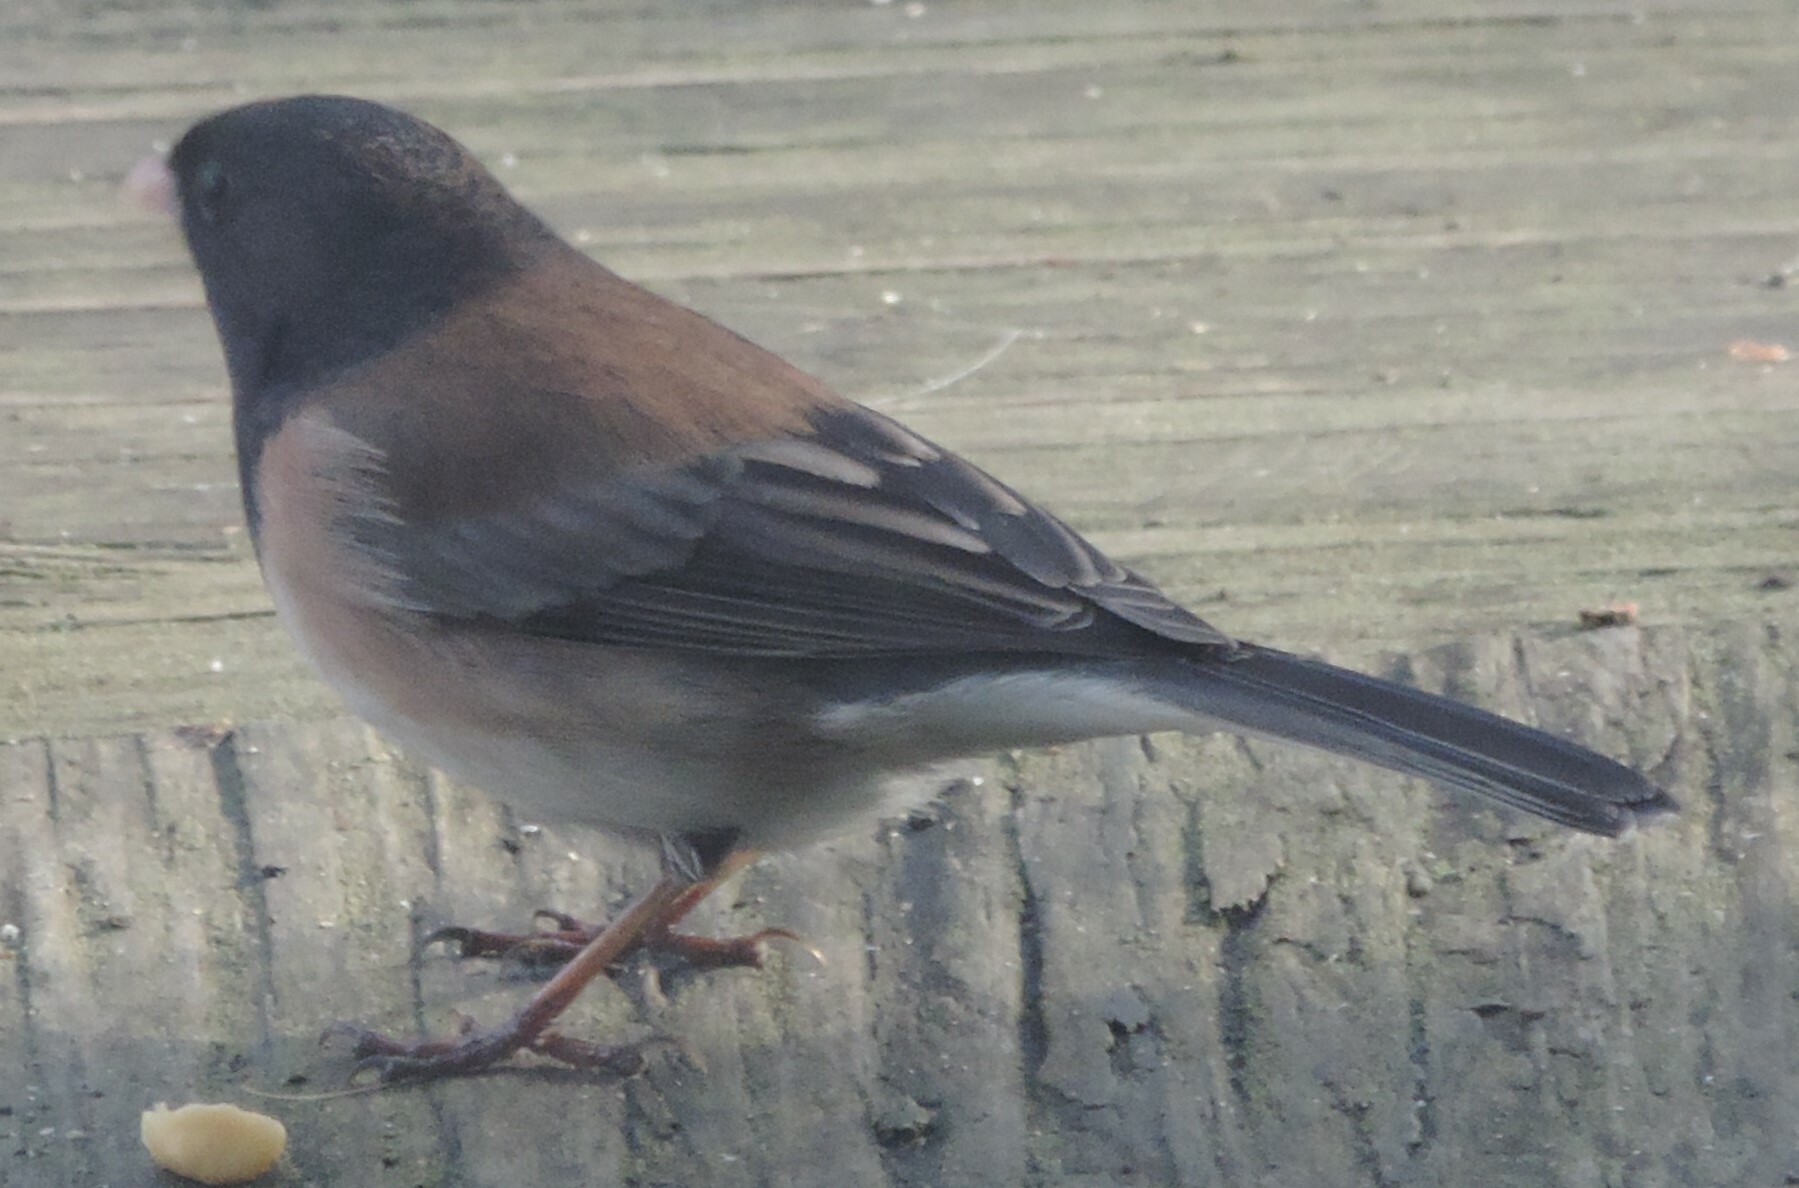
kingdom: Animalia
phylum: Chordata
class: Aves
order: Passeriformes
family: Passerellidae
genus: Junco
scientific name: Junco hyemalis
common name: Dark-eyed junco
